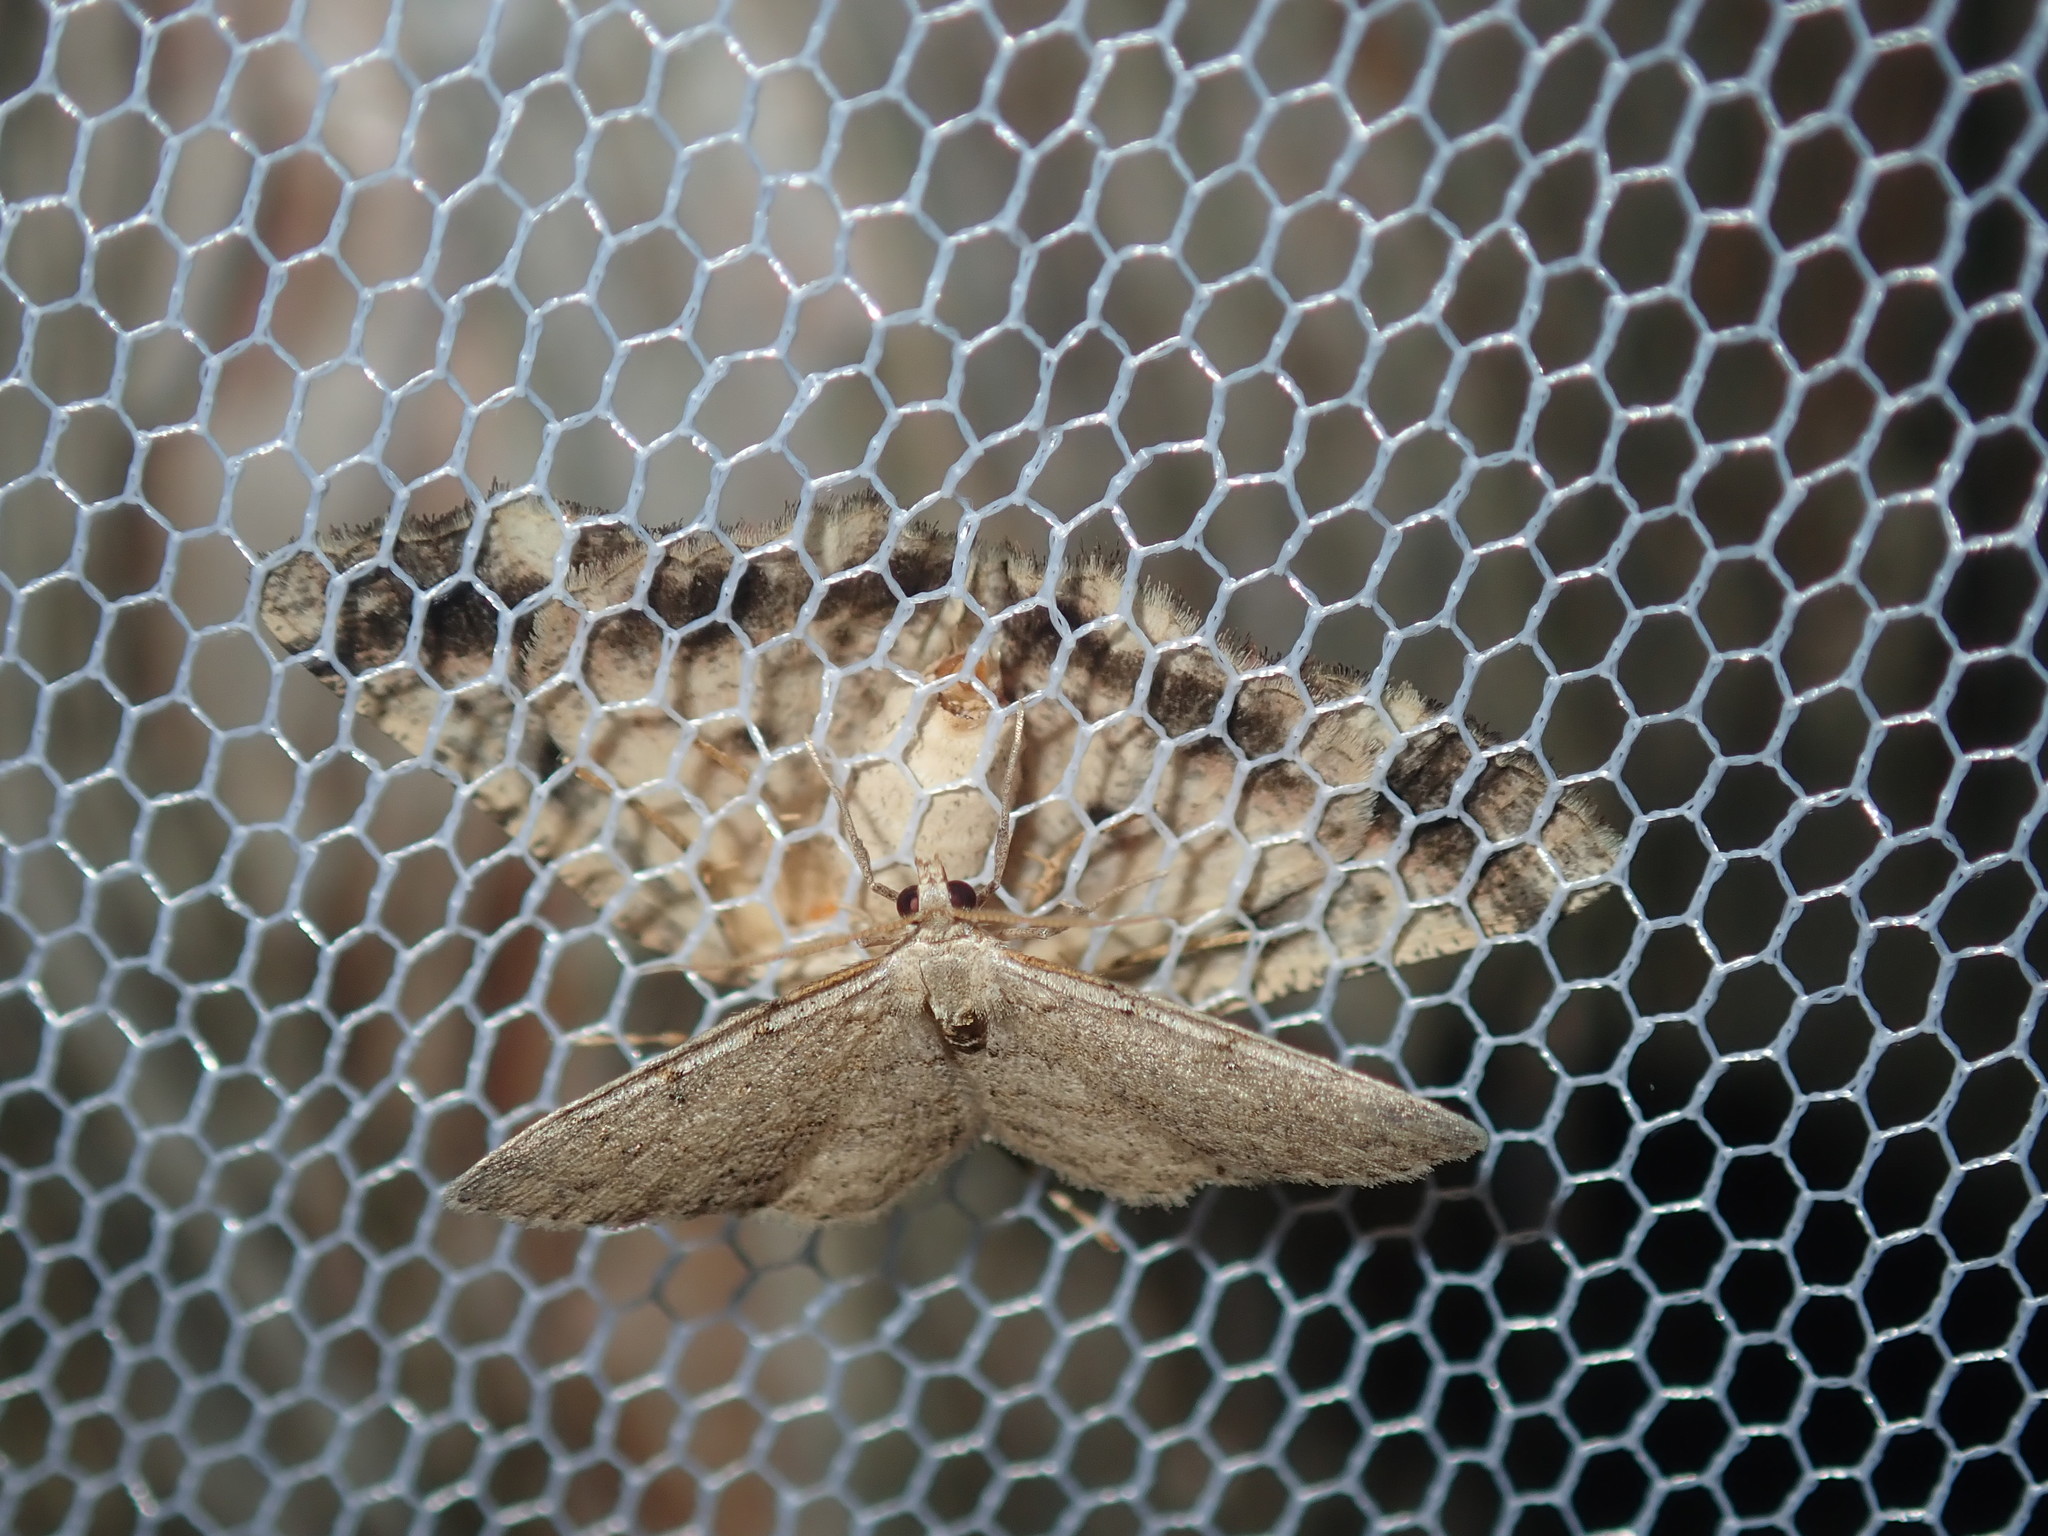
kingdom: Animalia
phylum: Arthropoda
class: Insecta
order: Lepidoptera
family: Geometridae
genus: Aeolochroma
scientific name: Aeolochroma metarhodata
